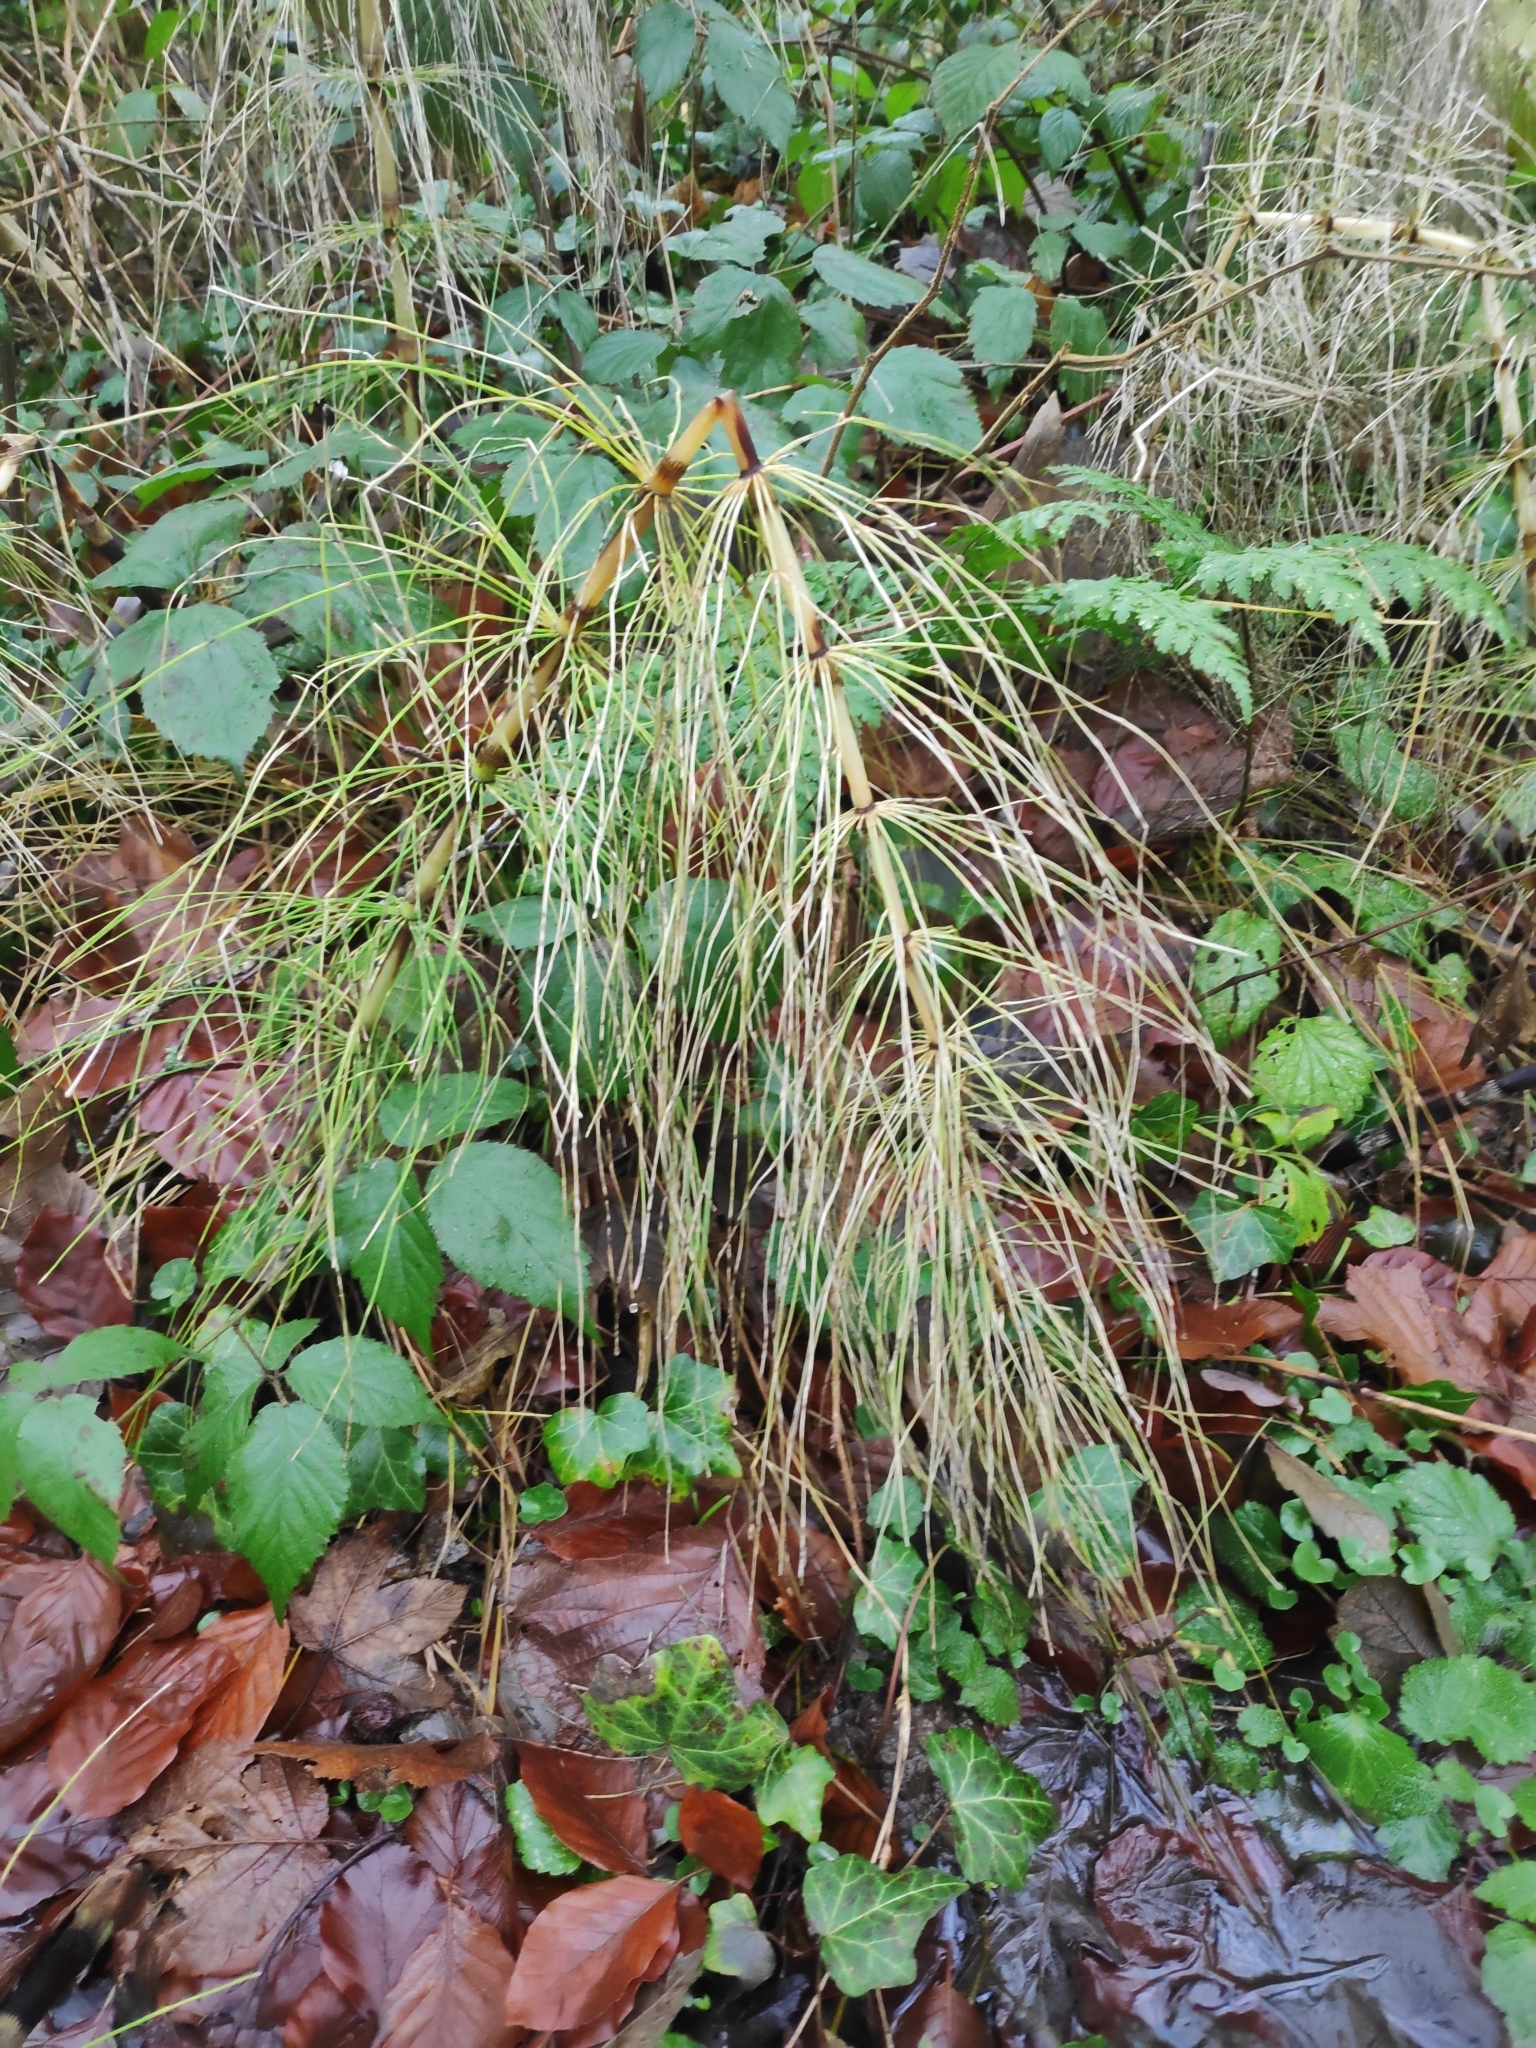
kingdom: Plantae
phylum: Tracheophyta
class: Polypodiopsida
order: Equisetales
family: Equisetaceae
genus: Equisetum
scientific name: Equisetum telmateia
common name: Great horsetail
